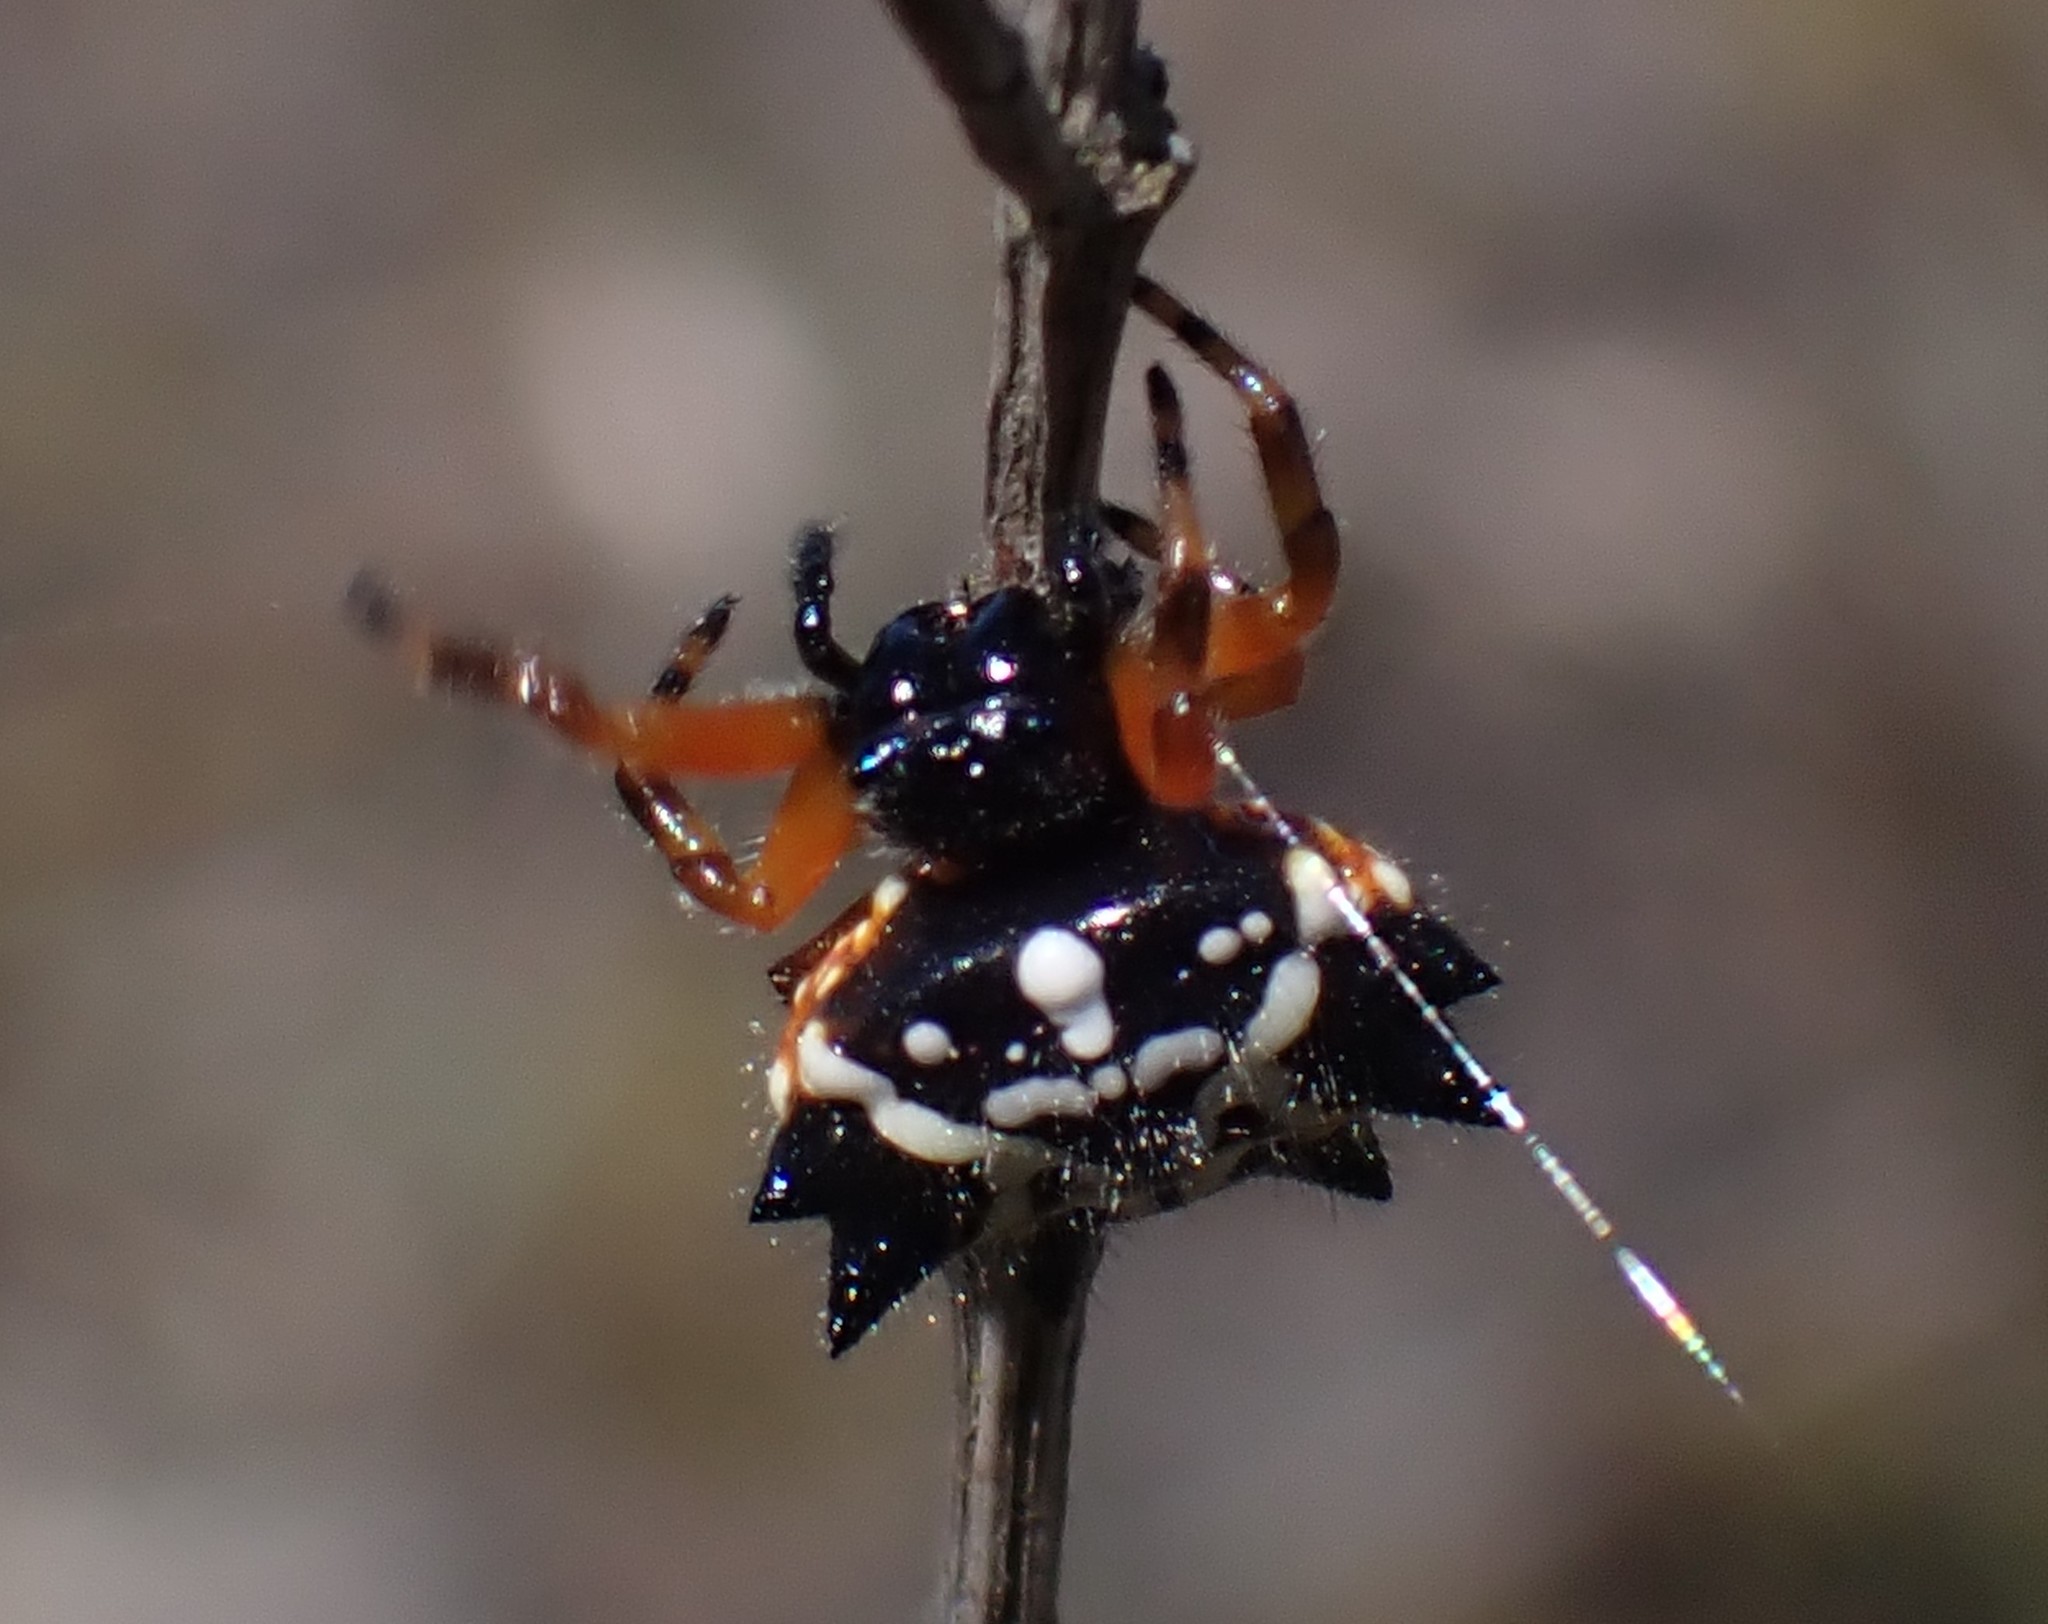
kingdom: Animalia
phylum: Arthropoda
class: Arachnida
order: Araneae
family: Araneidae
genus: Austracantha
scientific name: Austracantha minax
